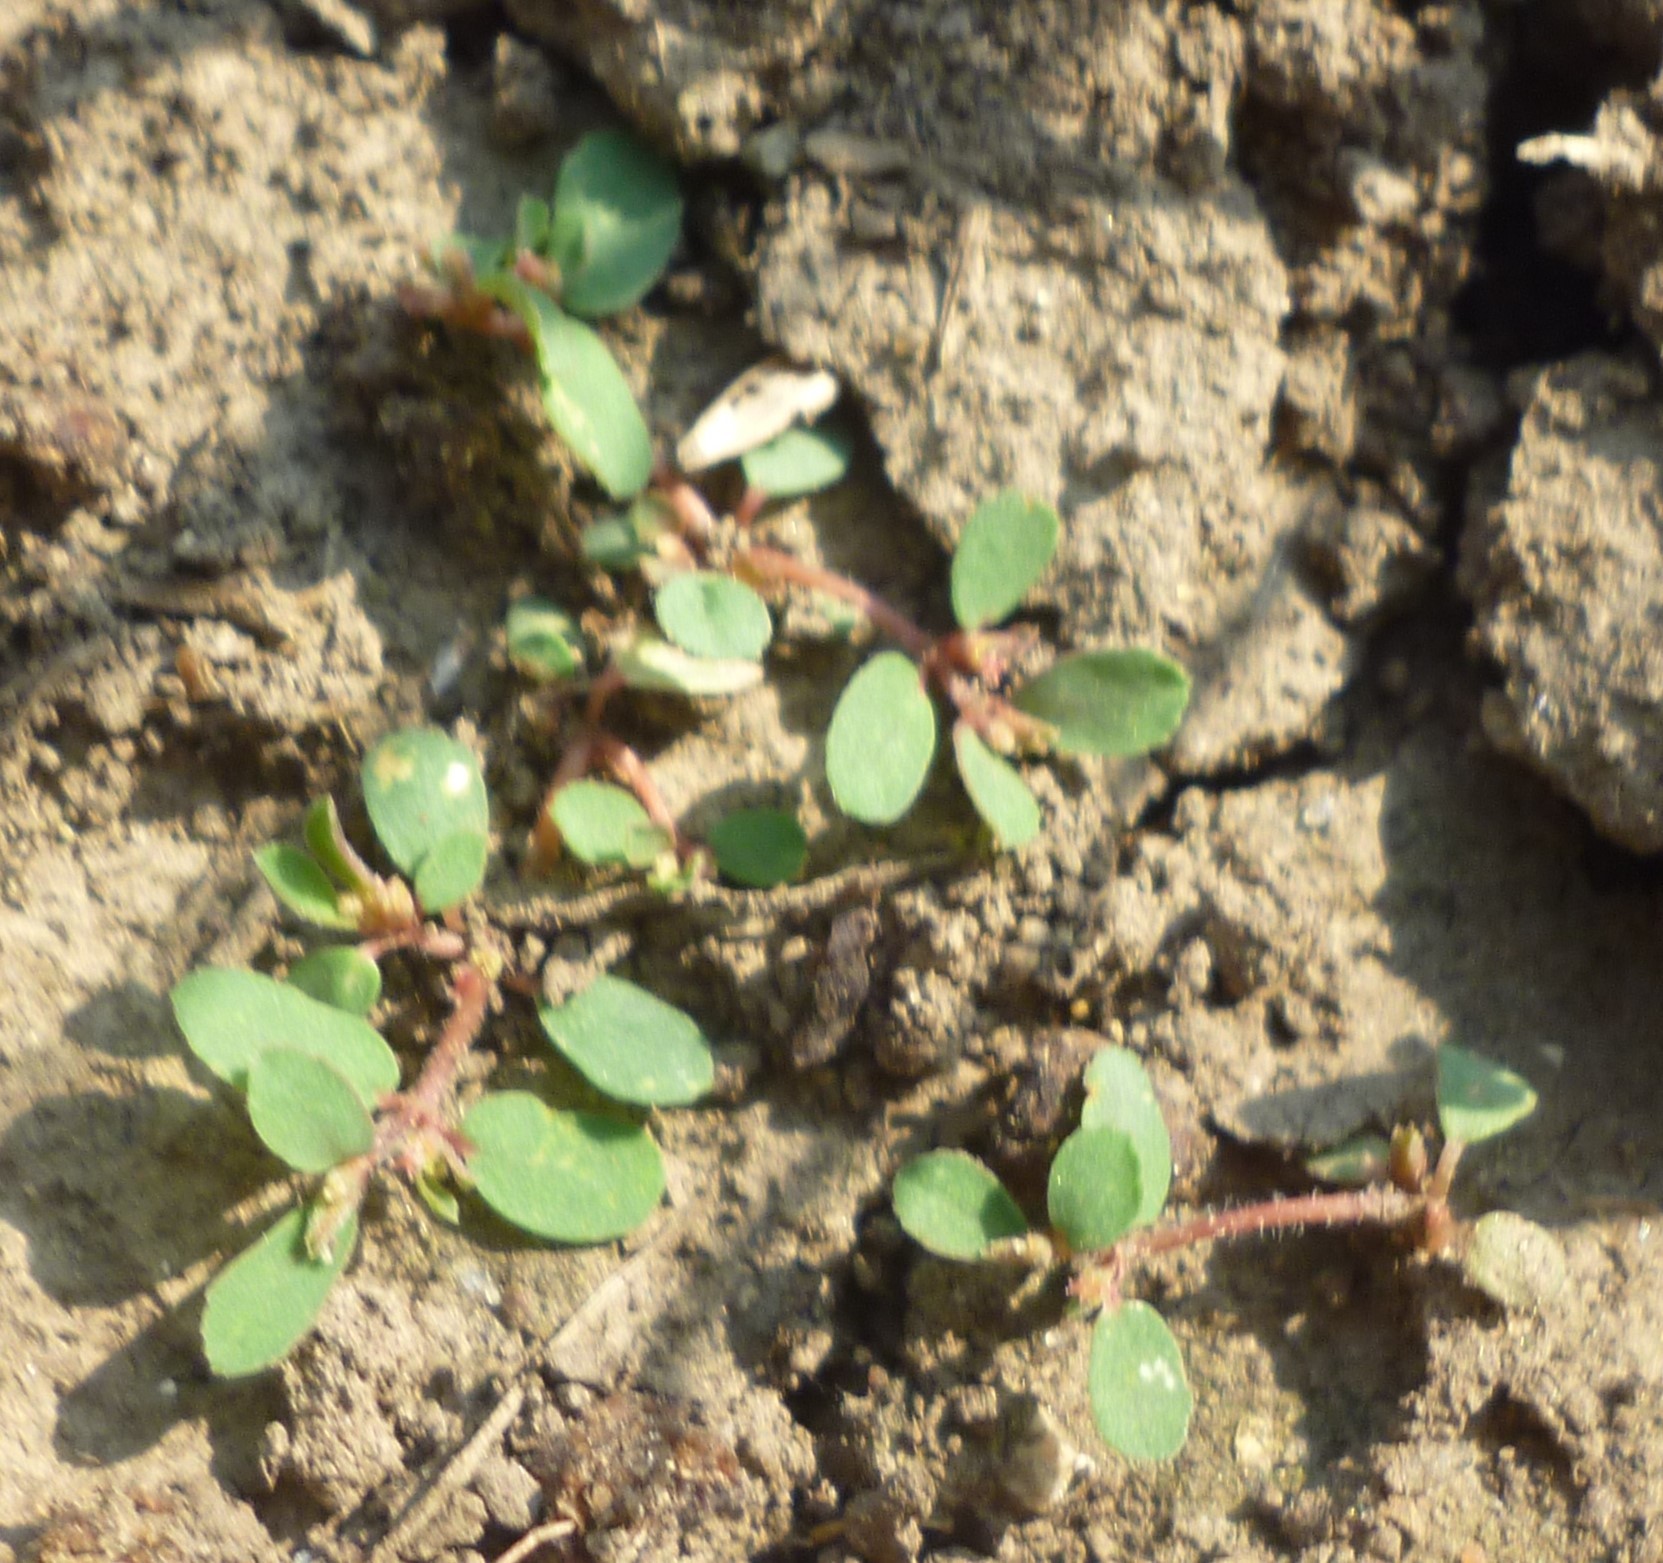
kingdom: Plantae
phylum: Tracheophyta
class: Magnoliopsida
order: Malpighiales
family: Euphorbiaceae
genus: Euphorbia
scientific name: Euphorbia maculata
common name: Spotted spurge
